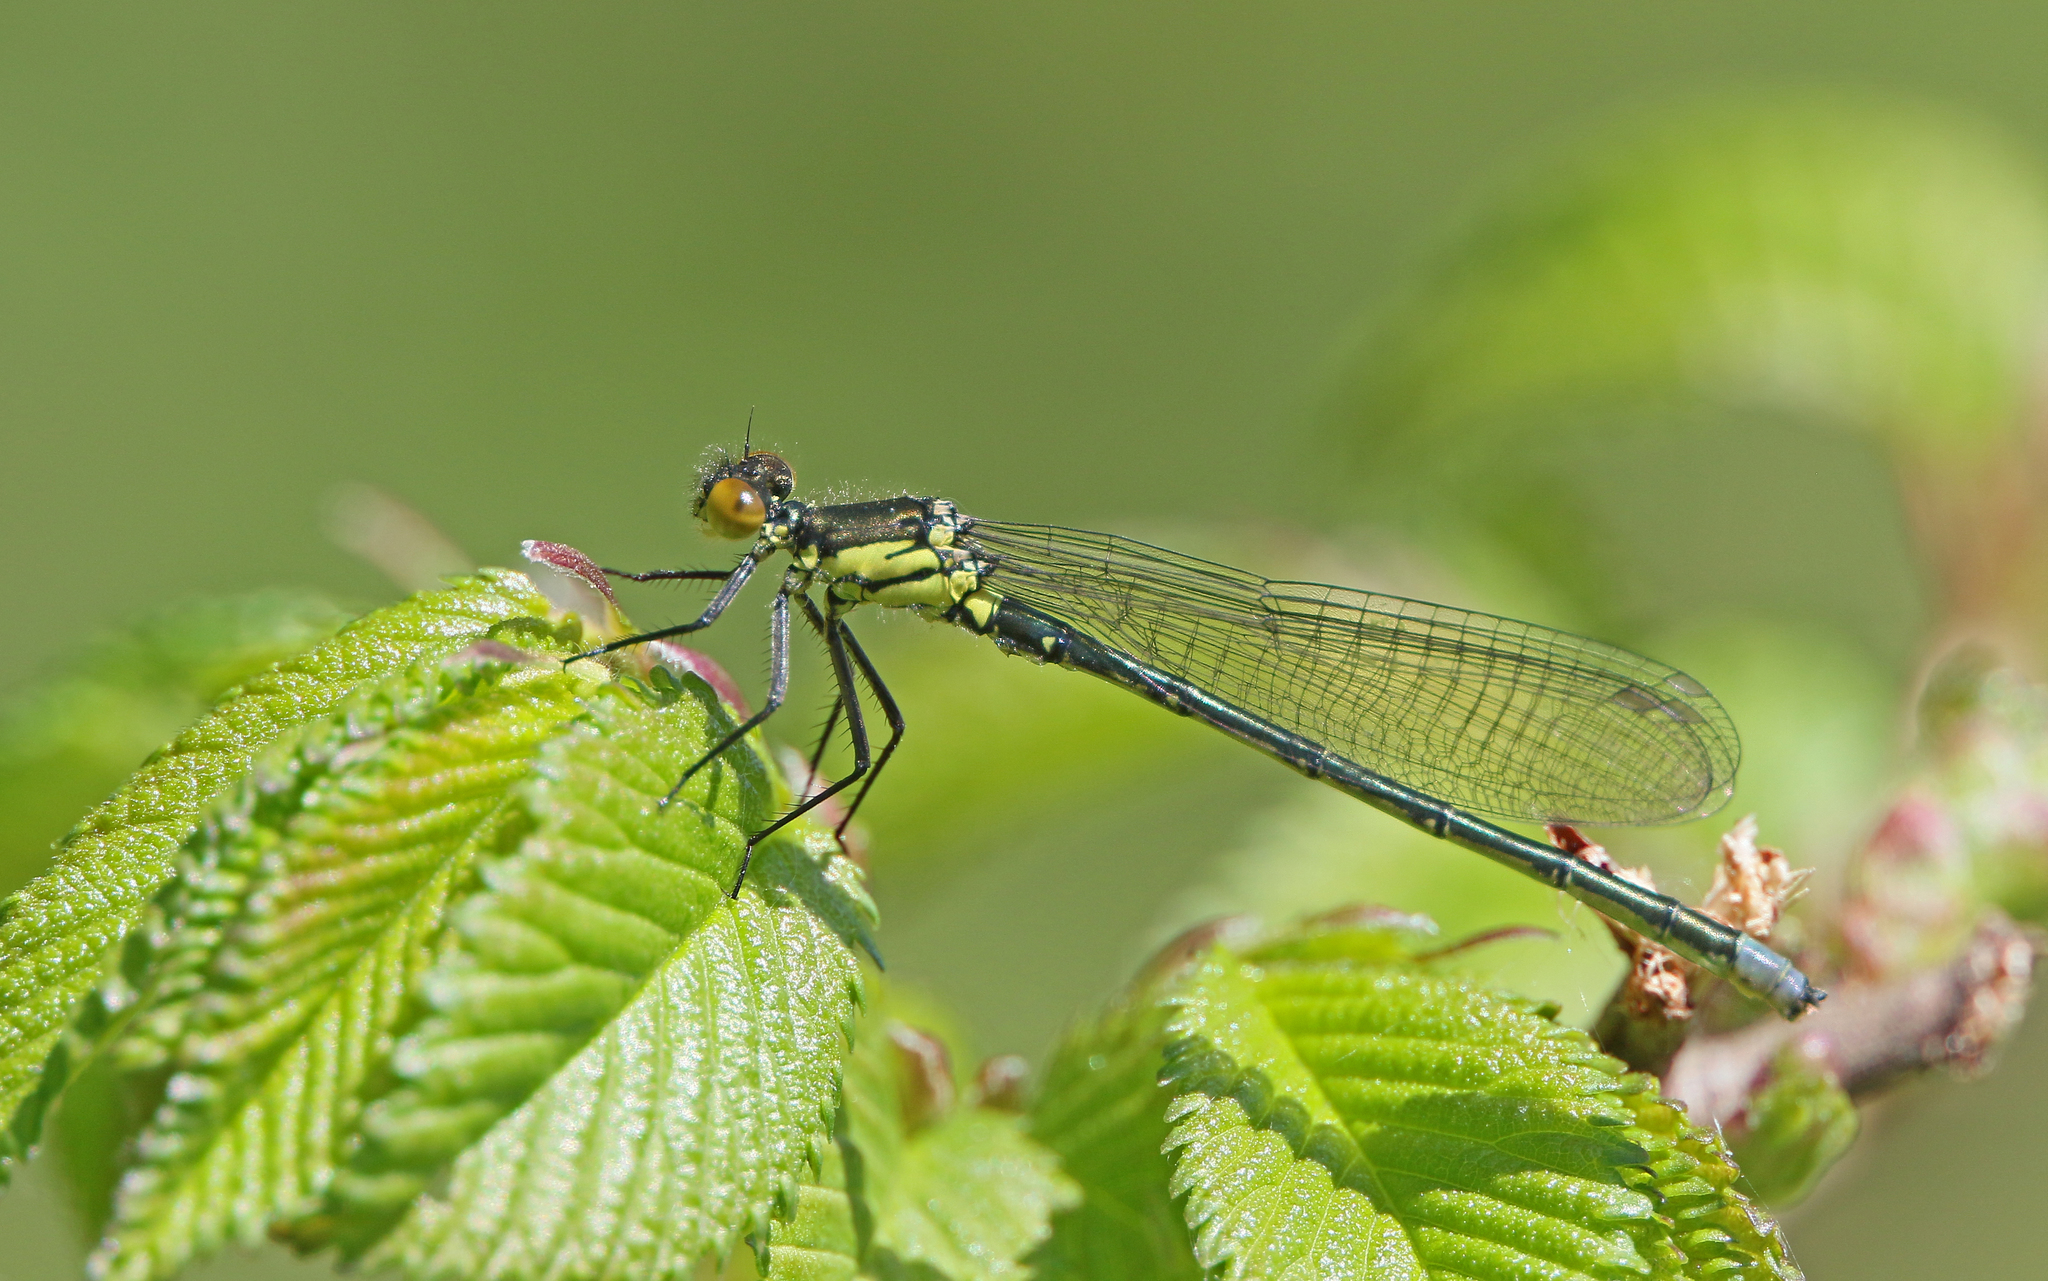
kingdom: Animalia
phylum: Arthropoda
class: Insecta
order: Odonata
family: Coenagrionidae
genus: Erythromma
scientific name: Erythromma najas
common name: Red-eyed damselfly
